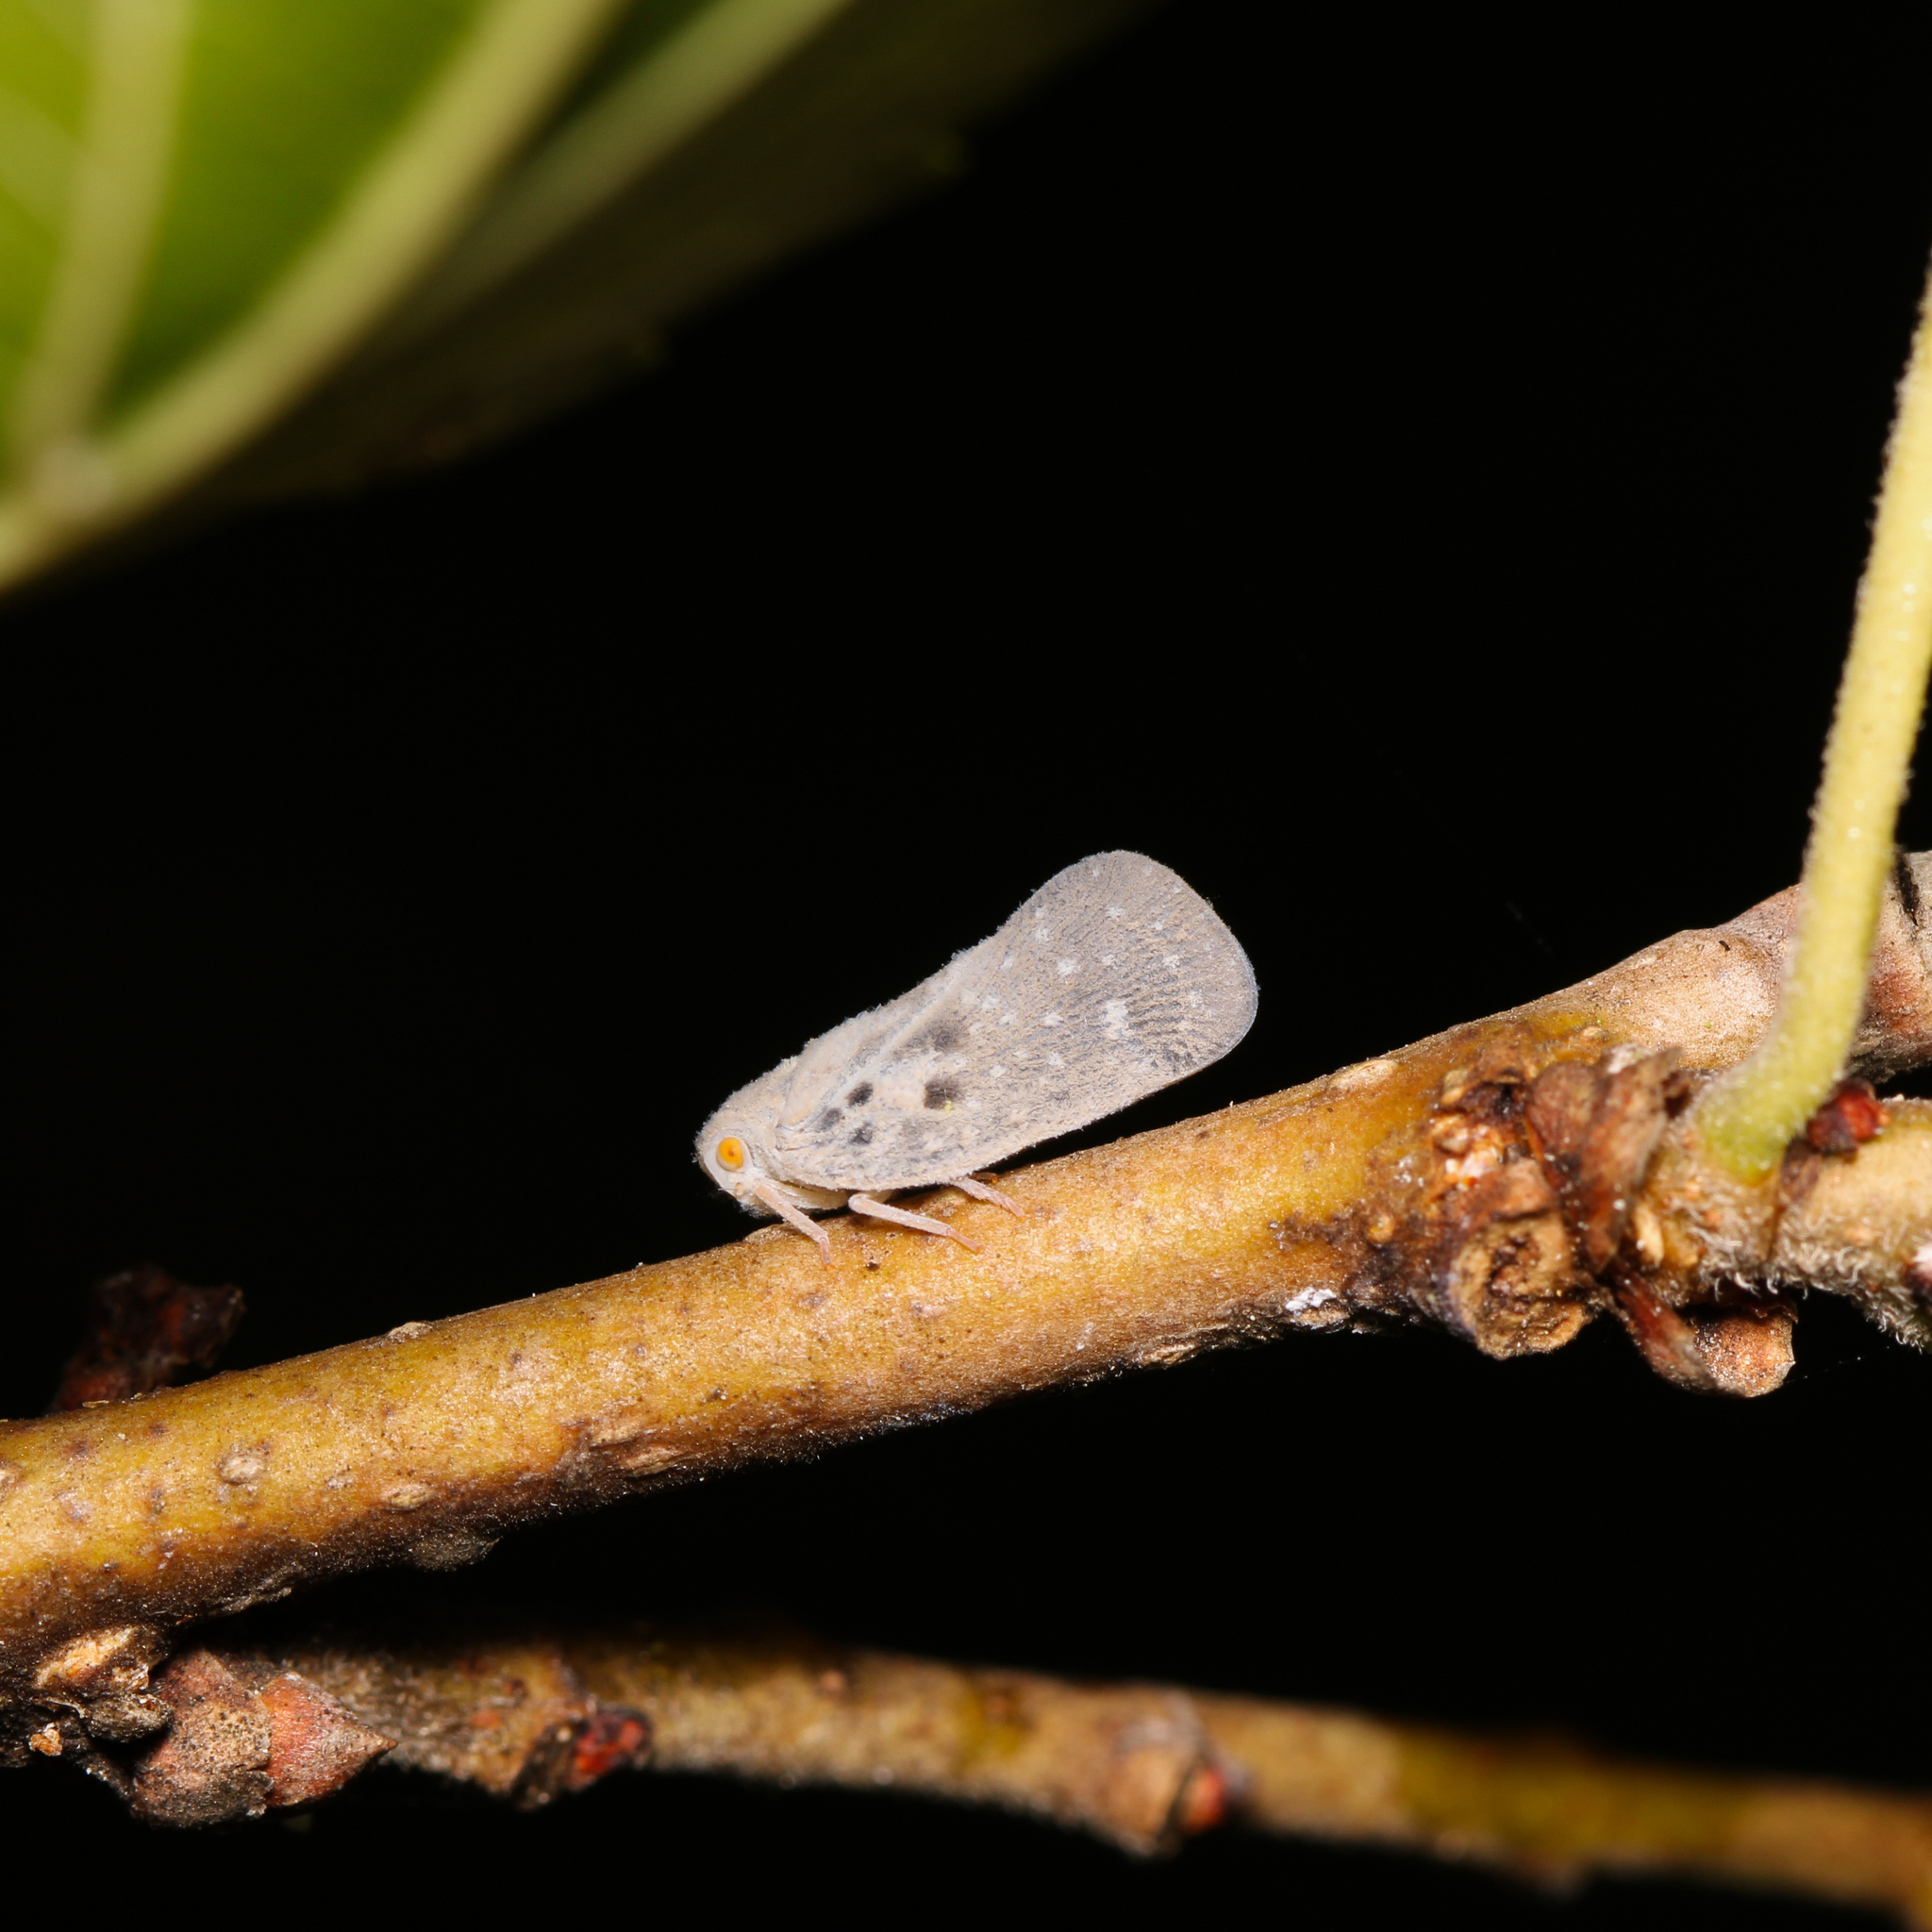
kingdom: Animalia
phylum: Arthropoda
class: Insecta
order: Hemiptera
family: Flatidae
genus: Metcalfa
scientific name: Metcalfa pruinosa
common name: Citrus flatid planthopper
